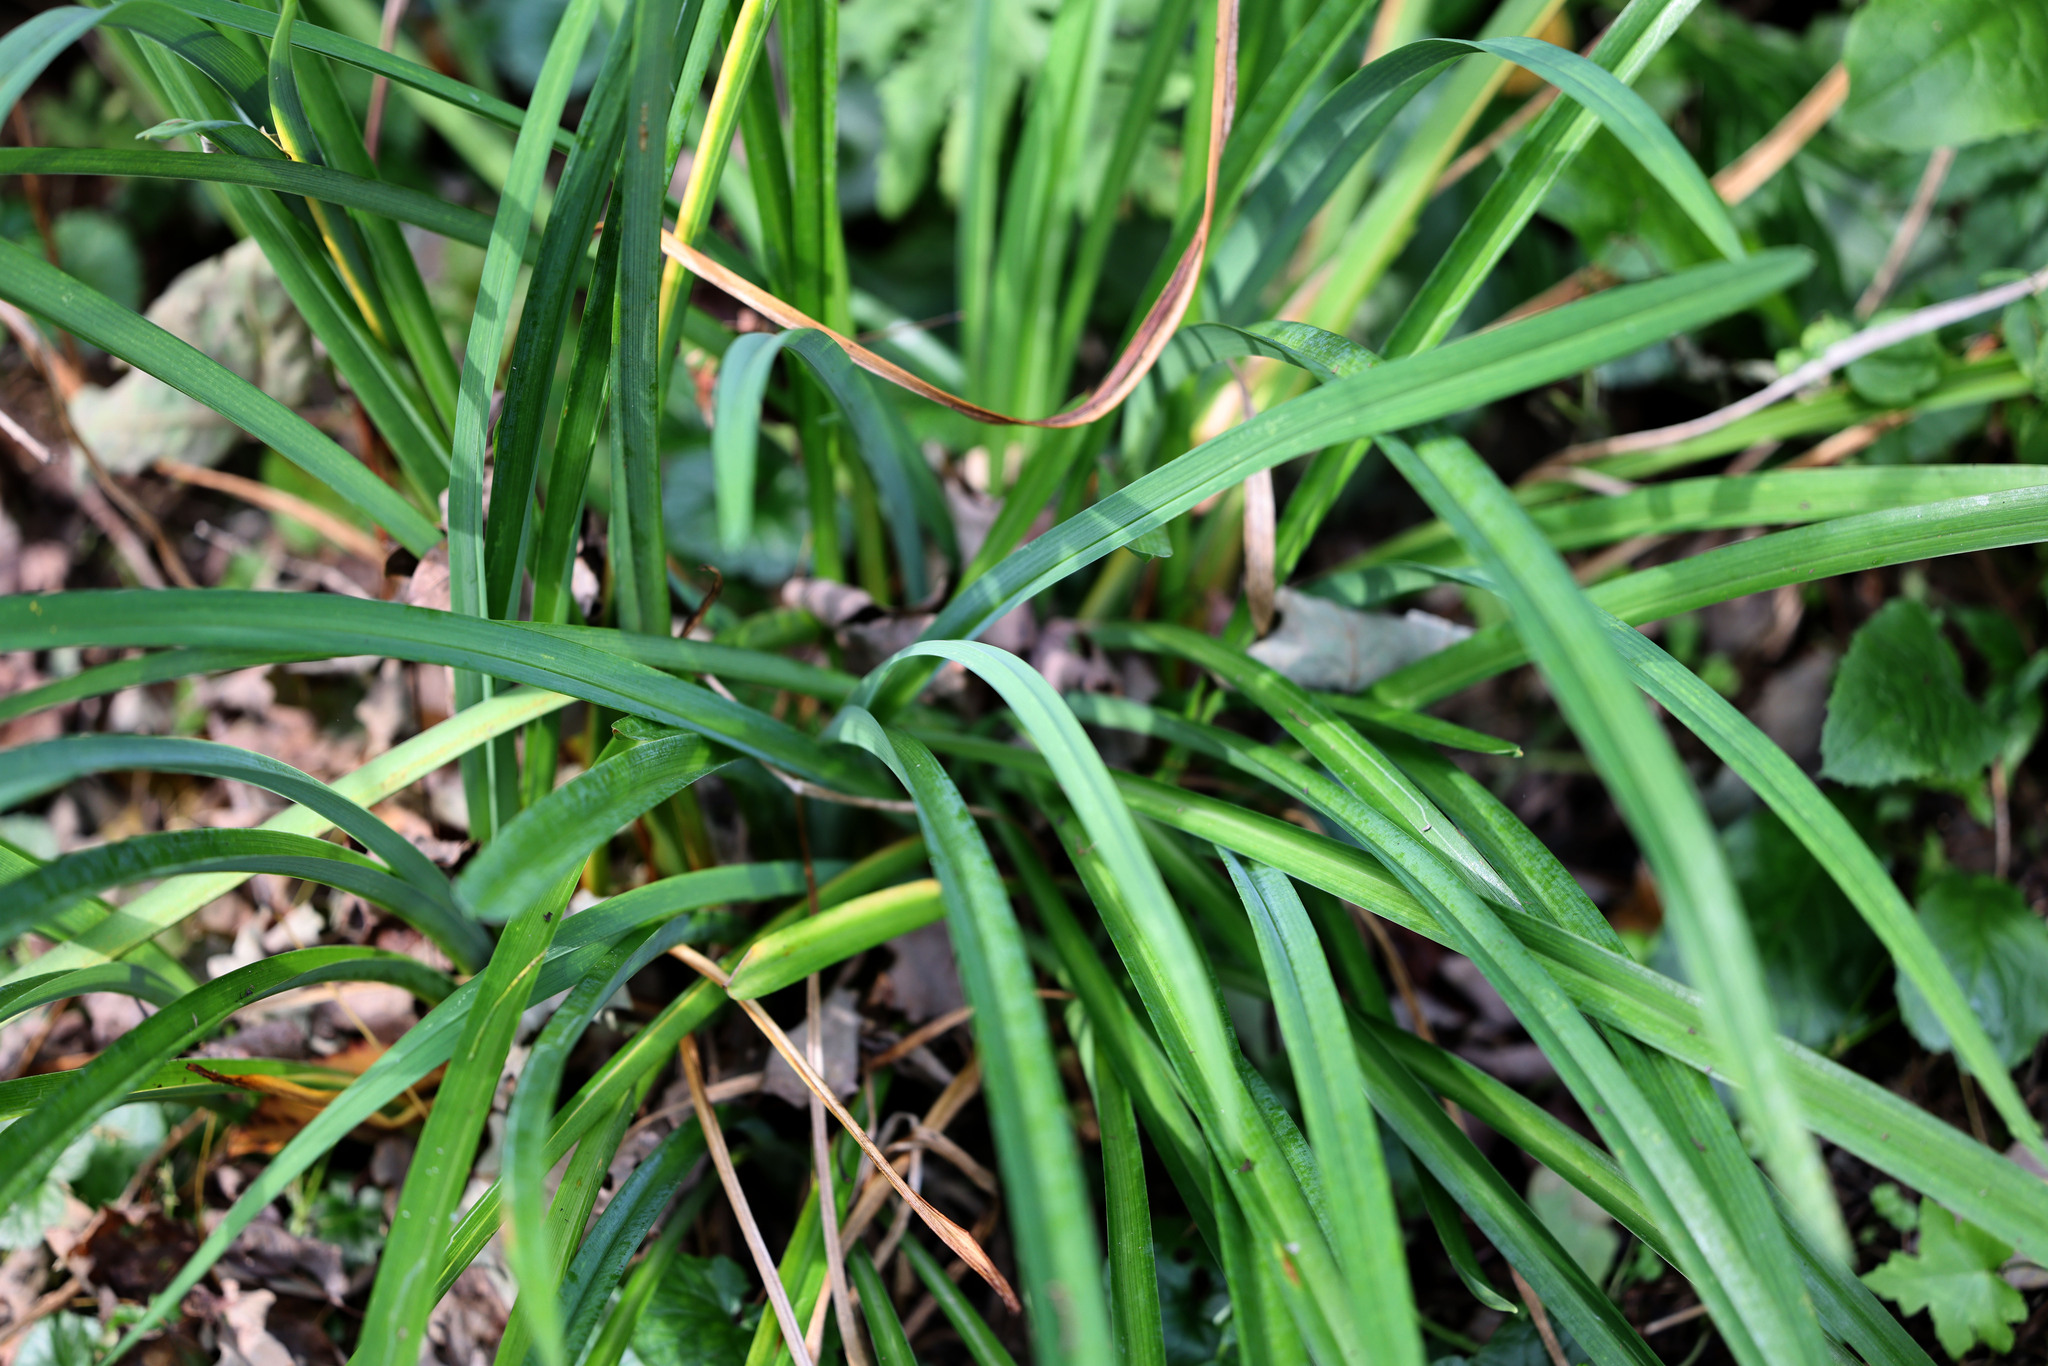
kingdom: Plantae
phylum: Tracheophyta
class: Liliopsida
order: Asparagales
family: Asphodelaceae
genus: Hemerocallis
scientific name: Hemerocallis fulva
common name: Orange day-lily
